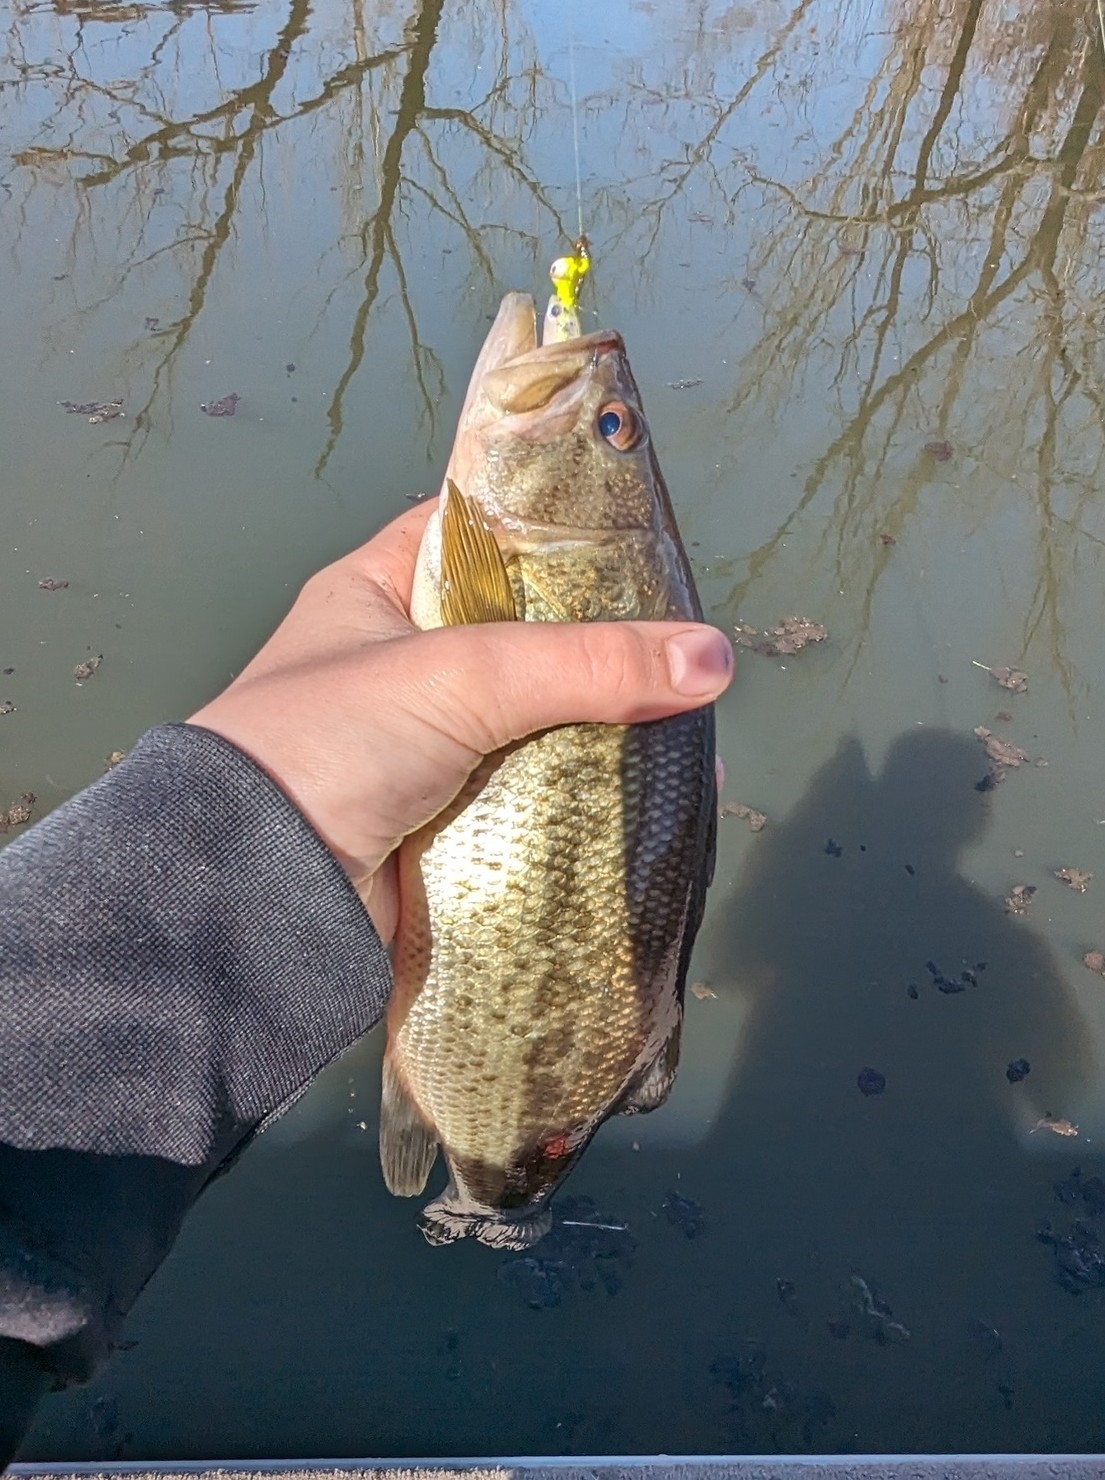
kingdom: Animalia
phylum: Chordata
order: Perciformes
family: Centrarchidae
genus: Micropterus
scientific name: Micropterus
